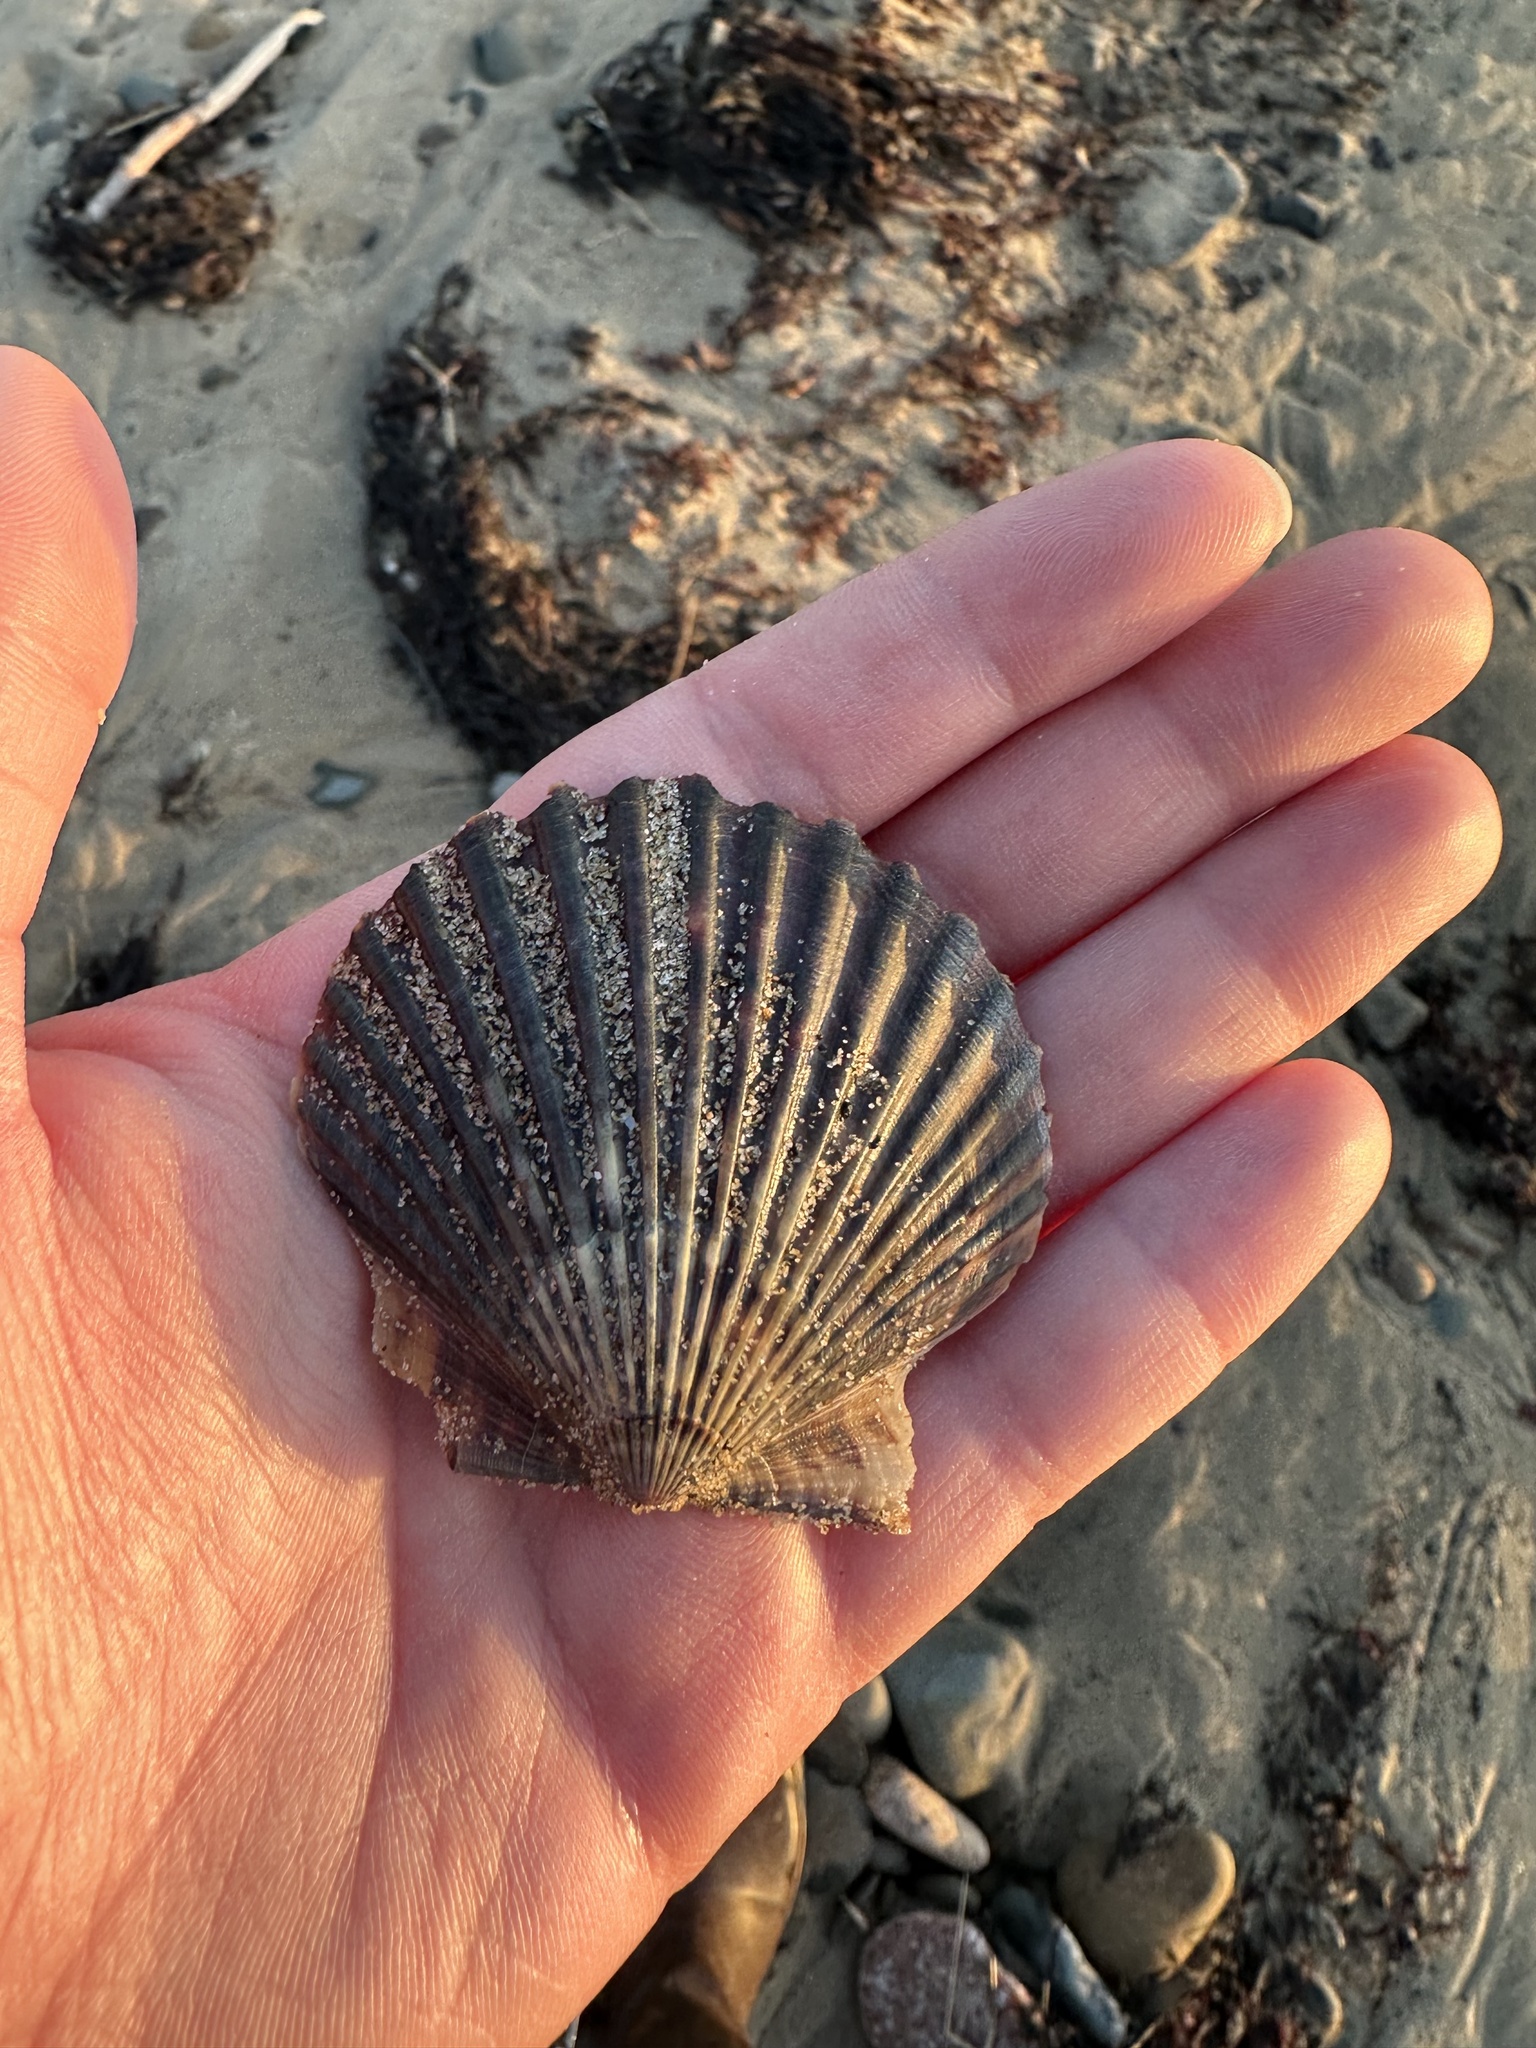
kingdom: Animalia
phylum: Mollusca
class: Bivalvia
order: Pectinida
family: Pectinidae
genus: Argopecten
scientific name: Argopecten irradians
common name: Atlantic bay scallop
